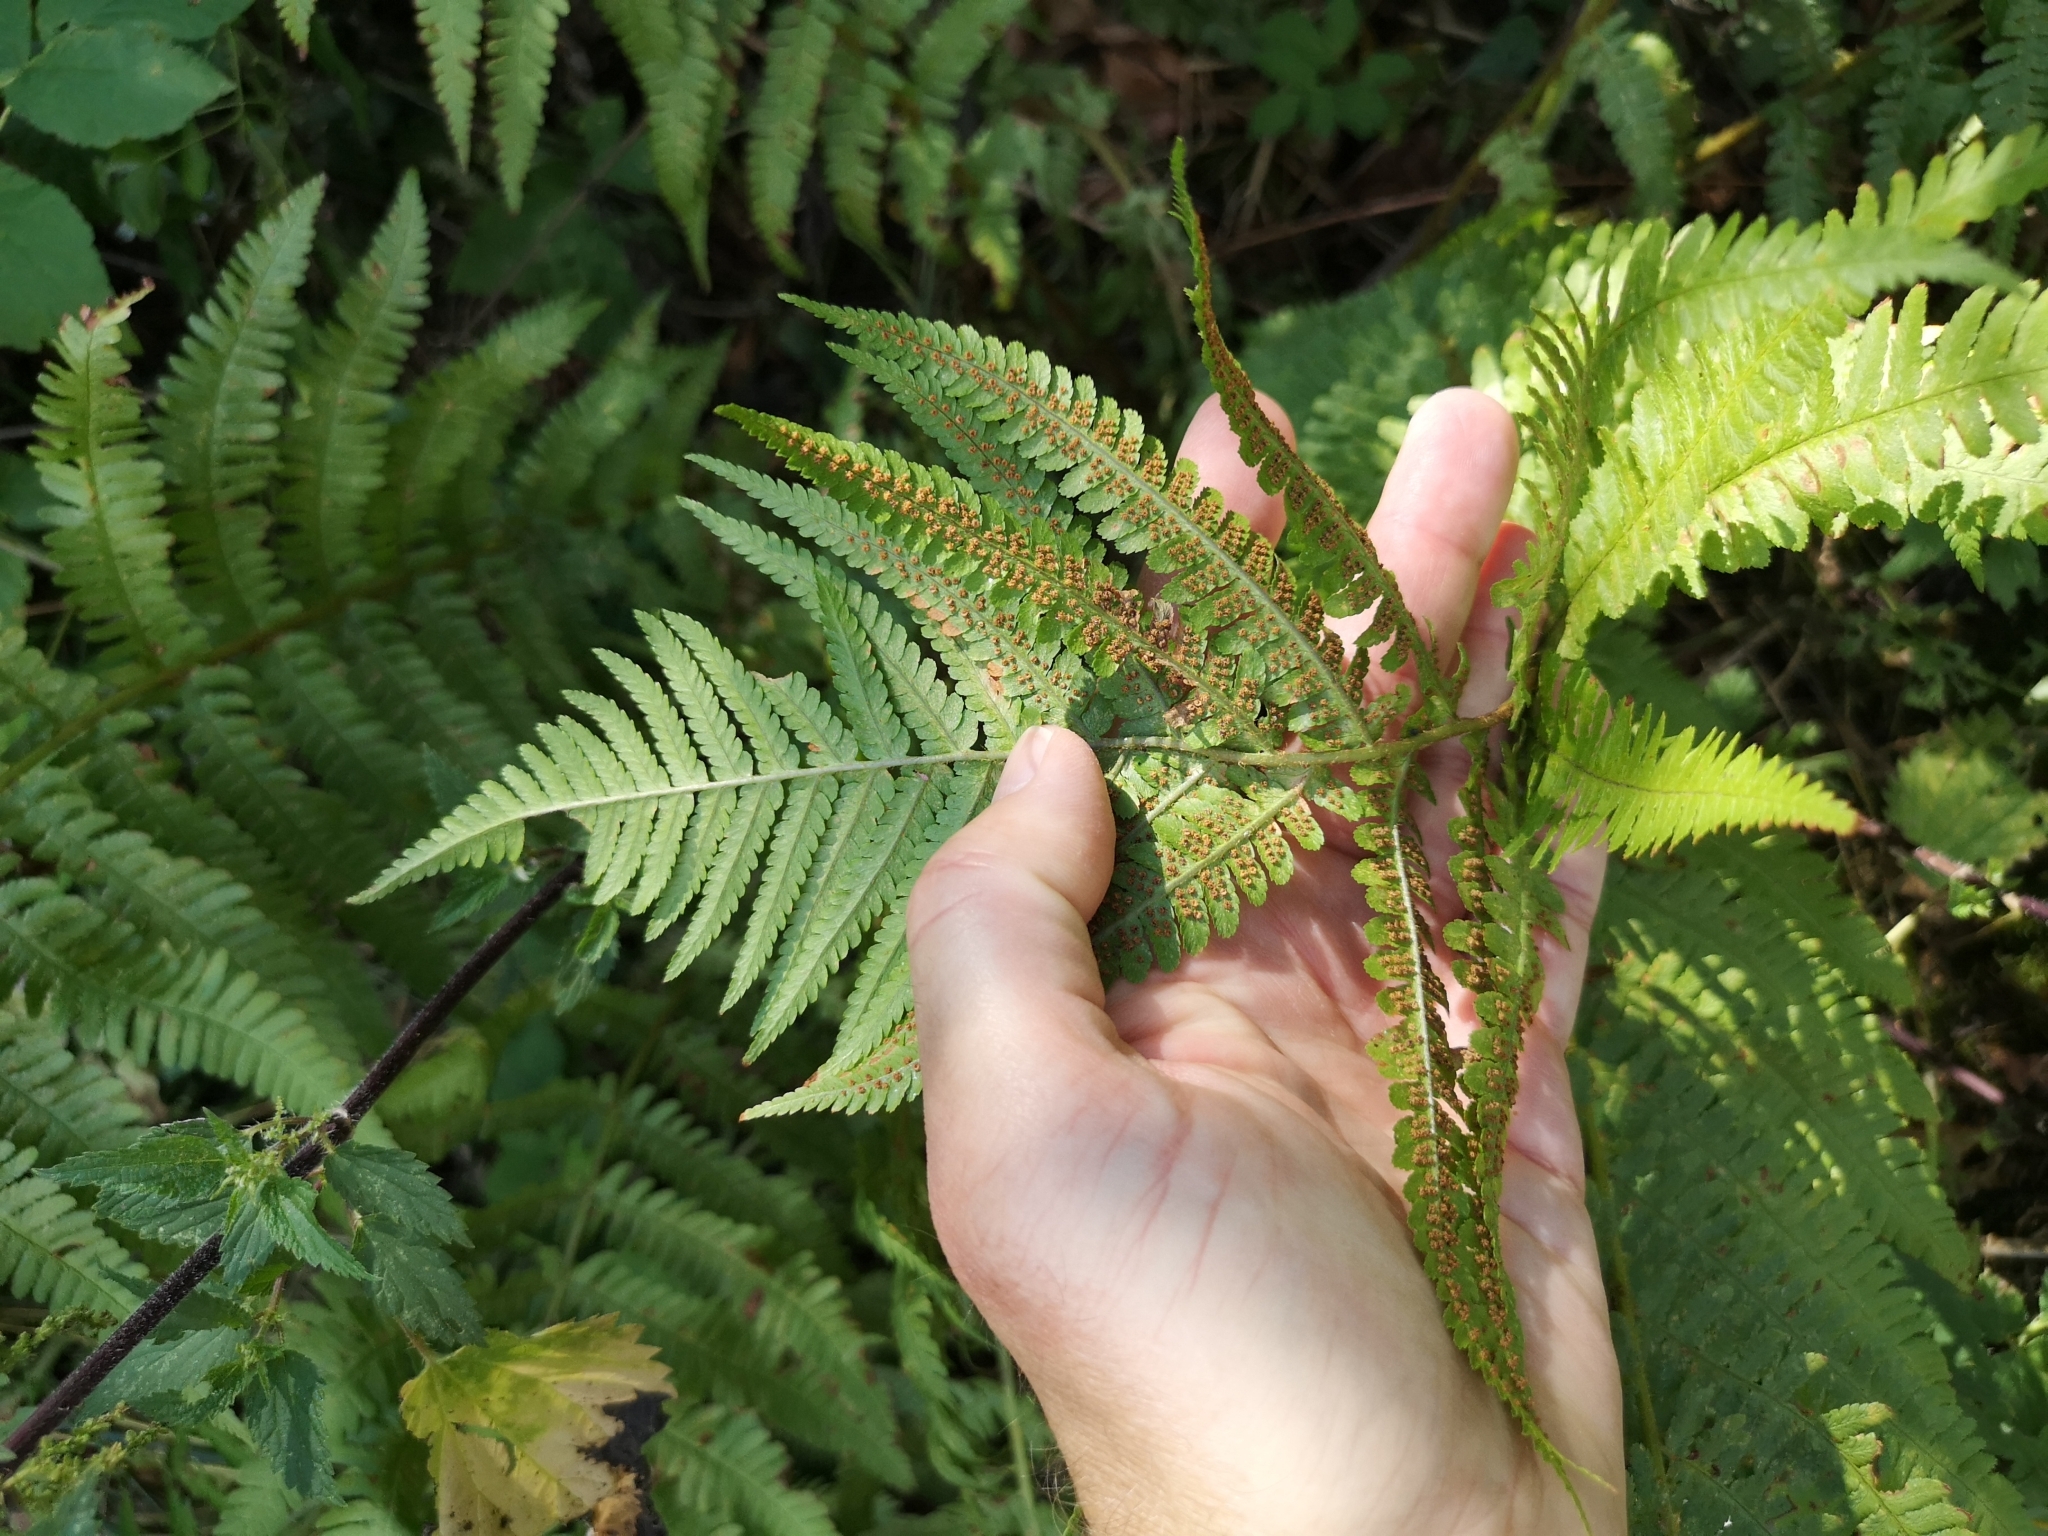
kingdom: Plantae
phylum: Tracheophyta
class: Polypodiopsida
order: Polypodiales
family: Dryopteridaceae
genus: Dryopteris
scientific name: Dryopteris filix-mas
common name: Male fern
